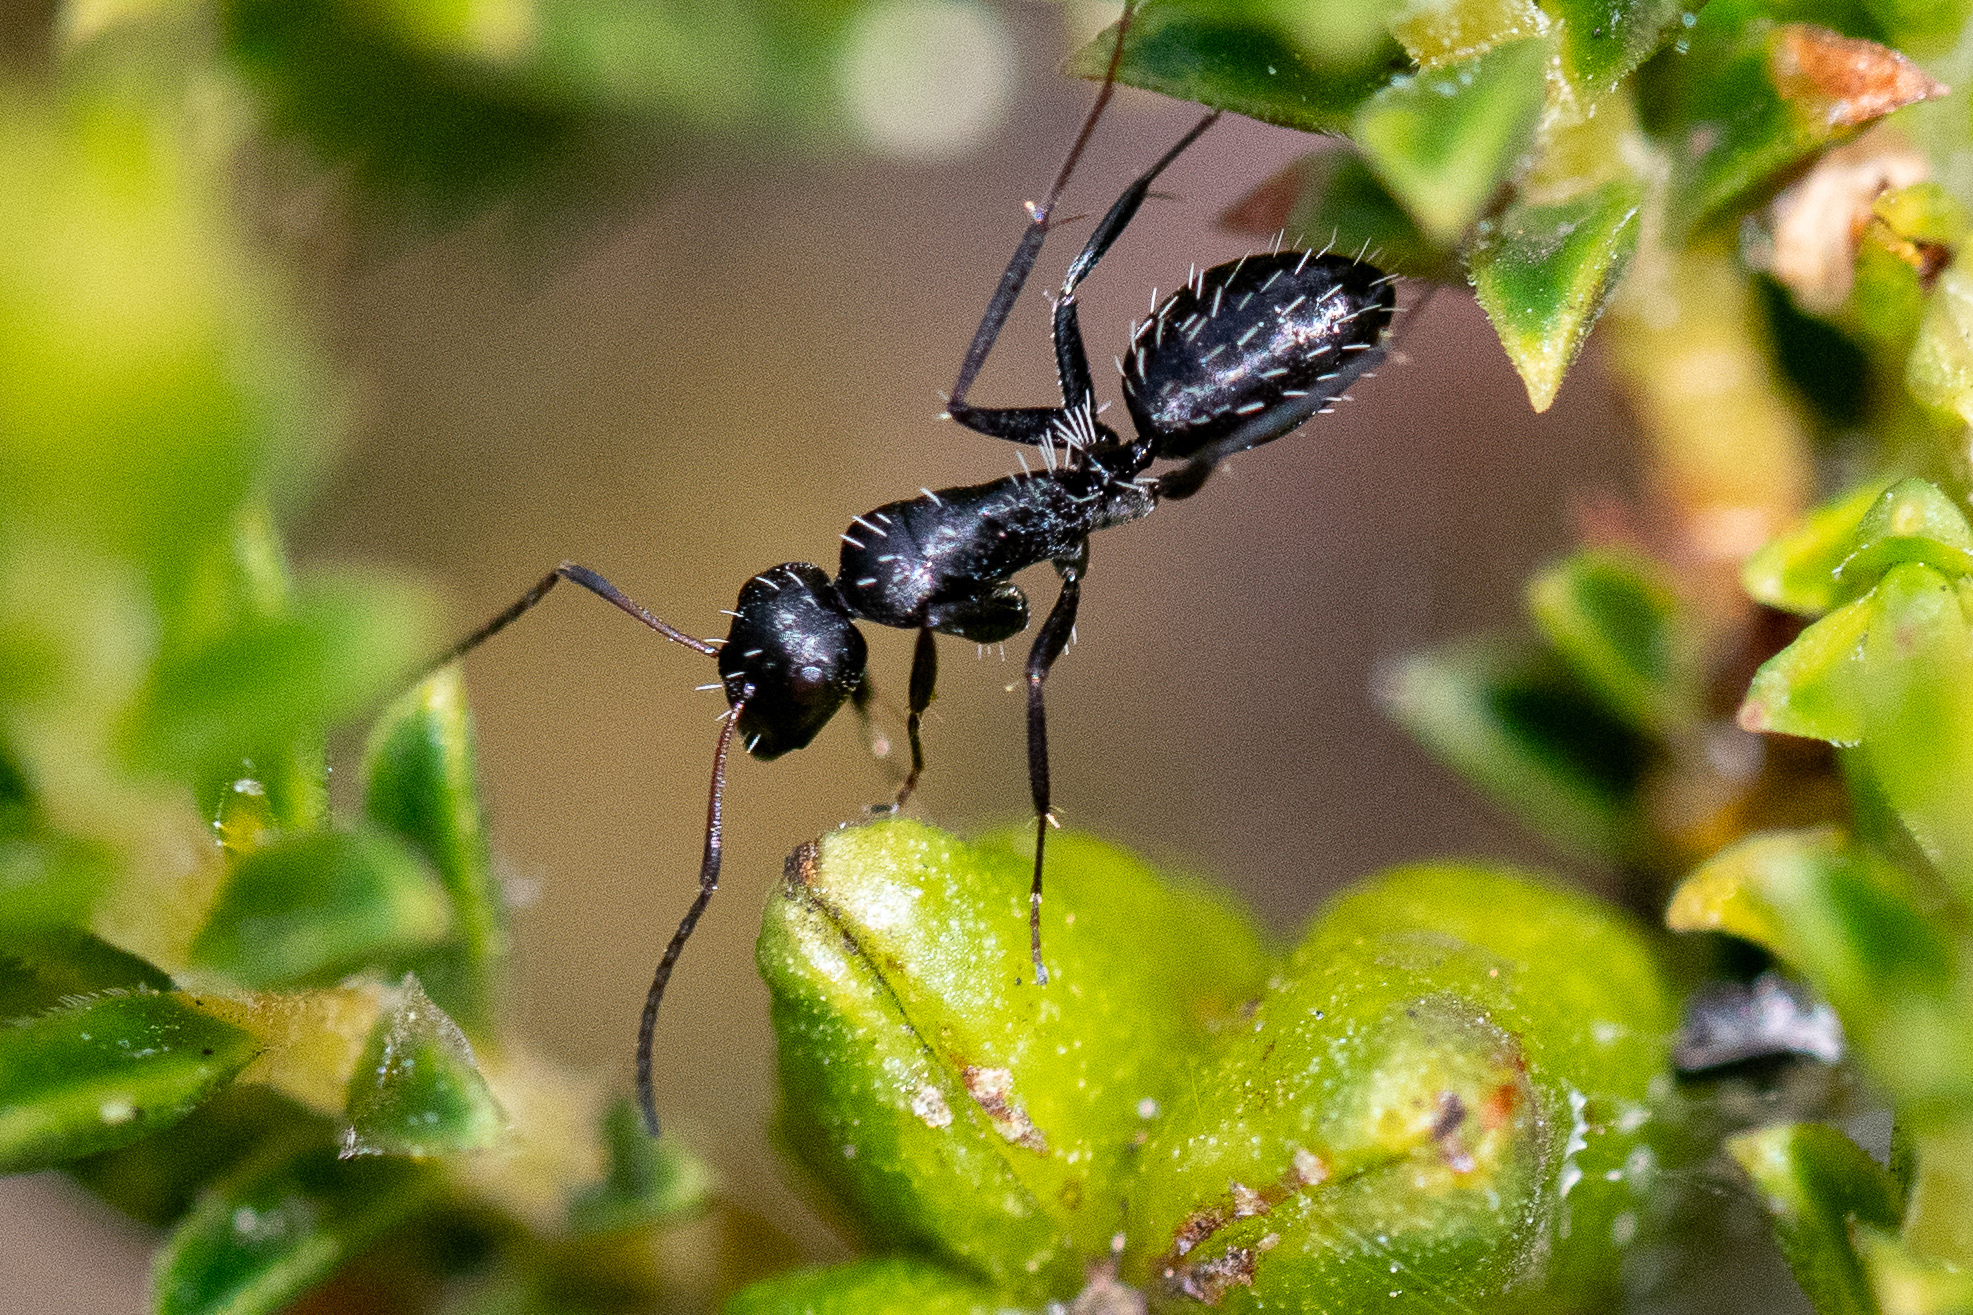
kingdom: Animalia
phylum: Arthropoda
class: Insecta
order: Hymenoptera
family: Formicidae
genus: Camponotus
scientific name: Camponotus niveosetosus
